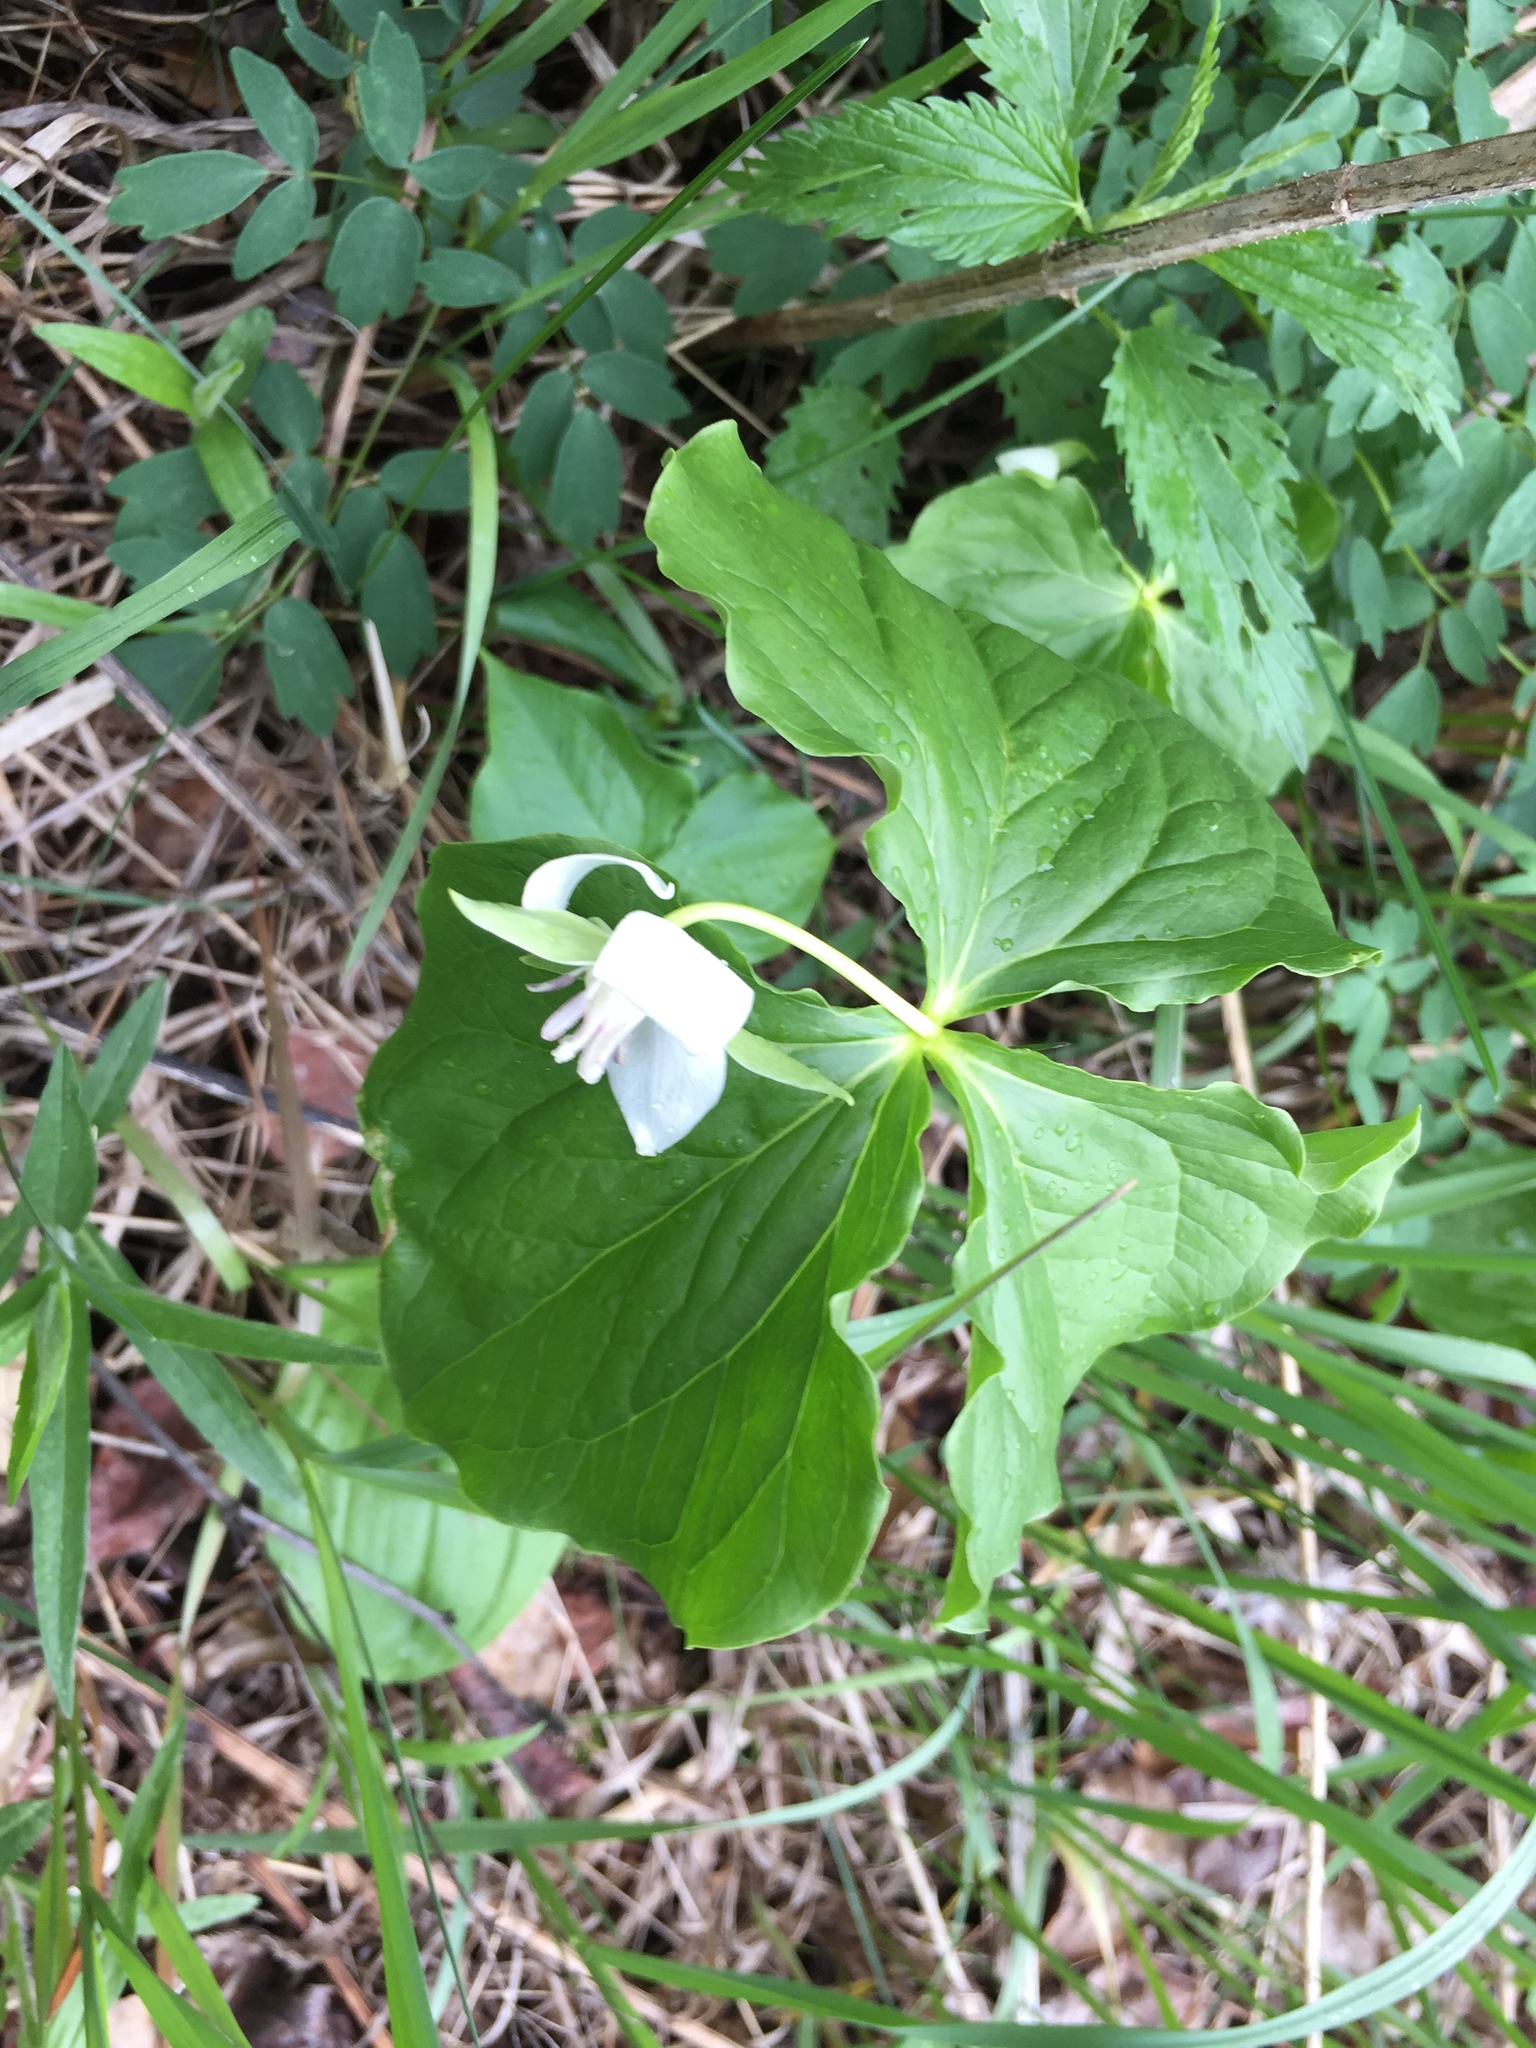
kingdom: Plantae
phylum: Tracheophyta
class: Liliopsida
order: Liliales
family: Melanthiaceae
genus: Trillium
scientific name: Trillium cernuum
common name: Nodding trillium
